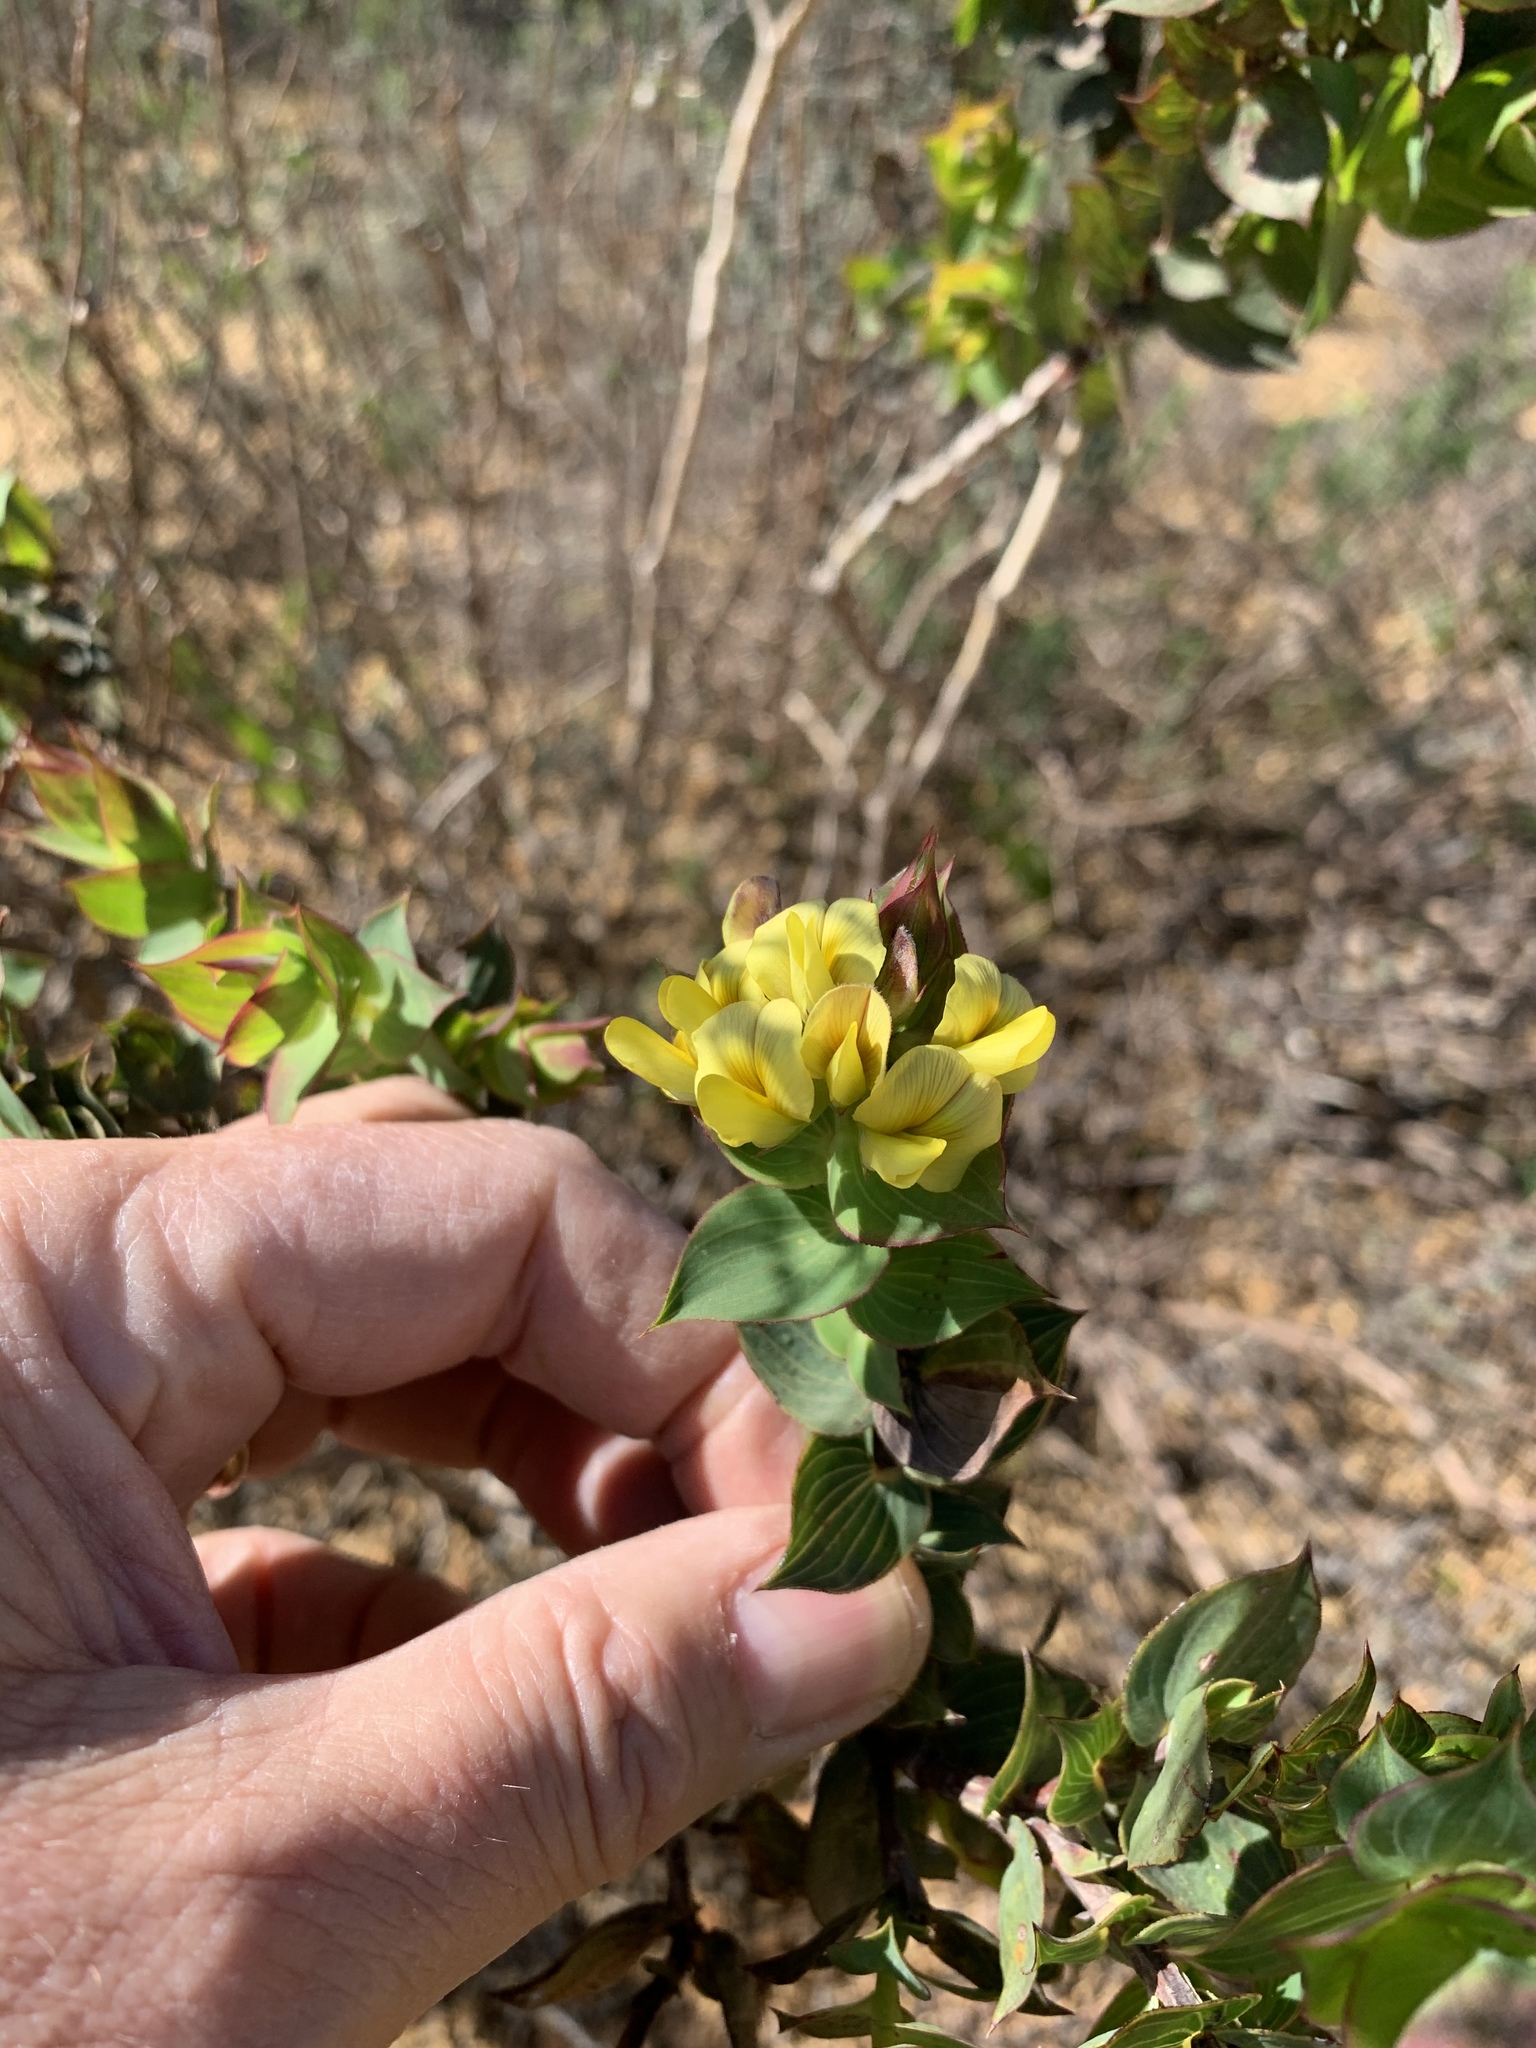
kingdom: Plantae
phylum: Tracheophyta
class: Magnoliopsida
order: Fabales
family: Fabaceae
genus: Aspalathus
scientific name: Aspalathus crenata
